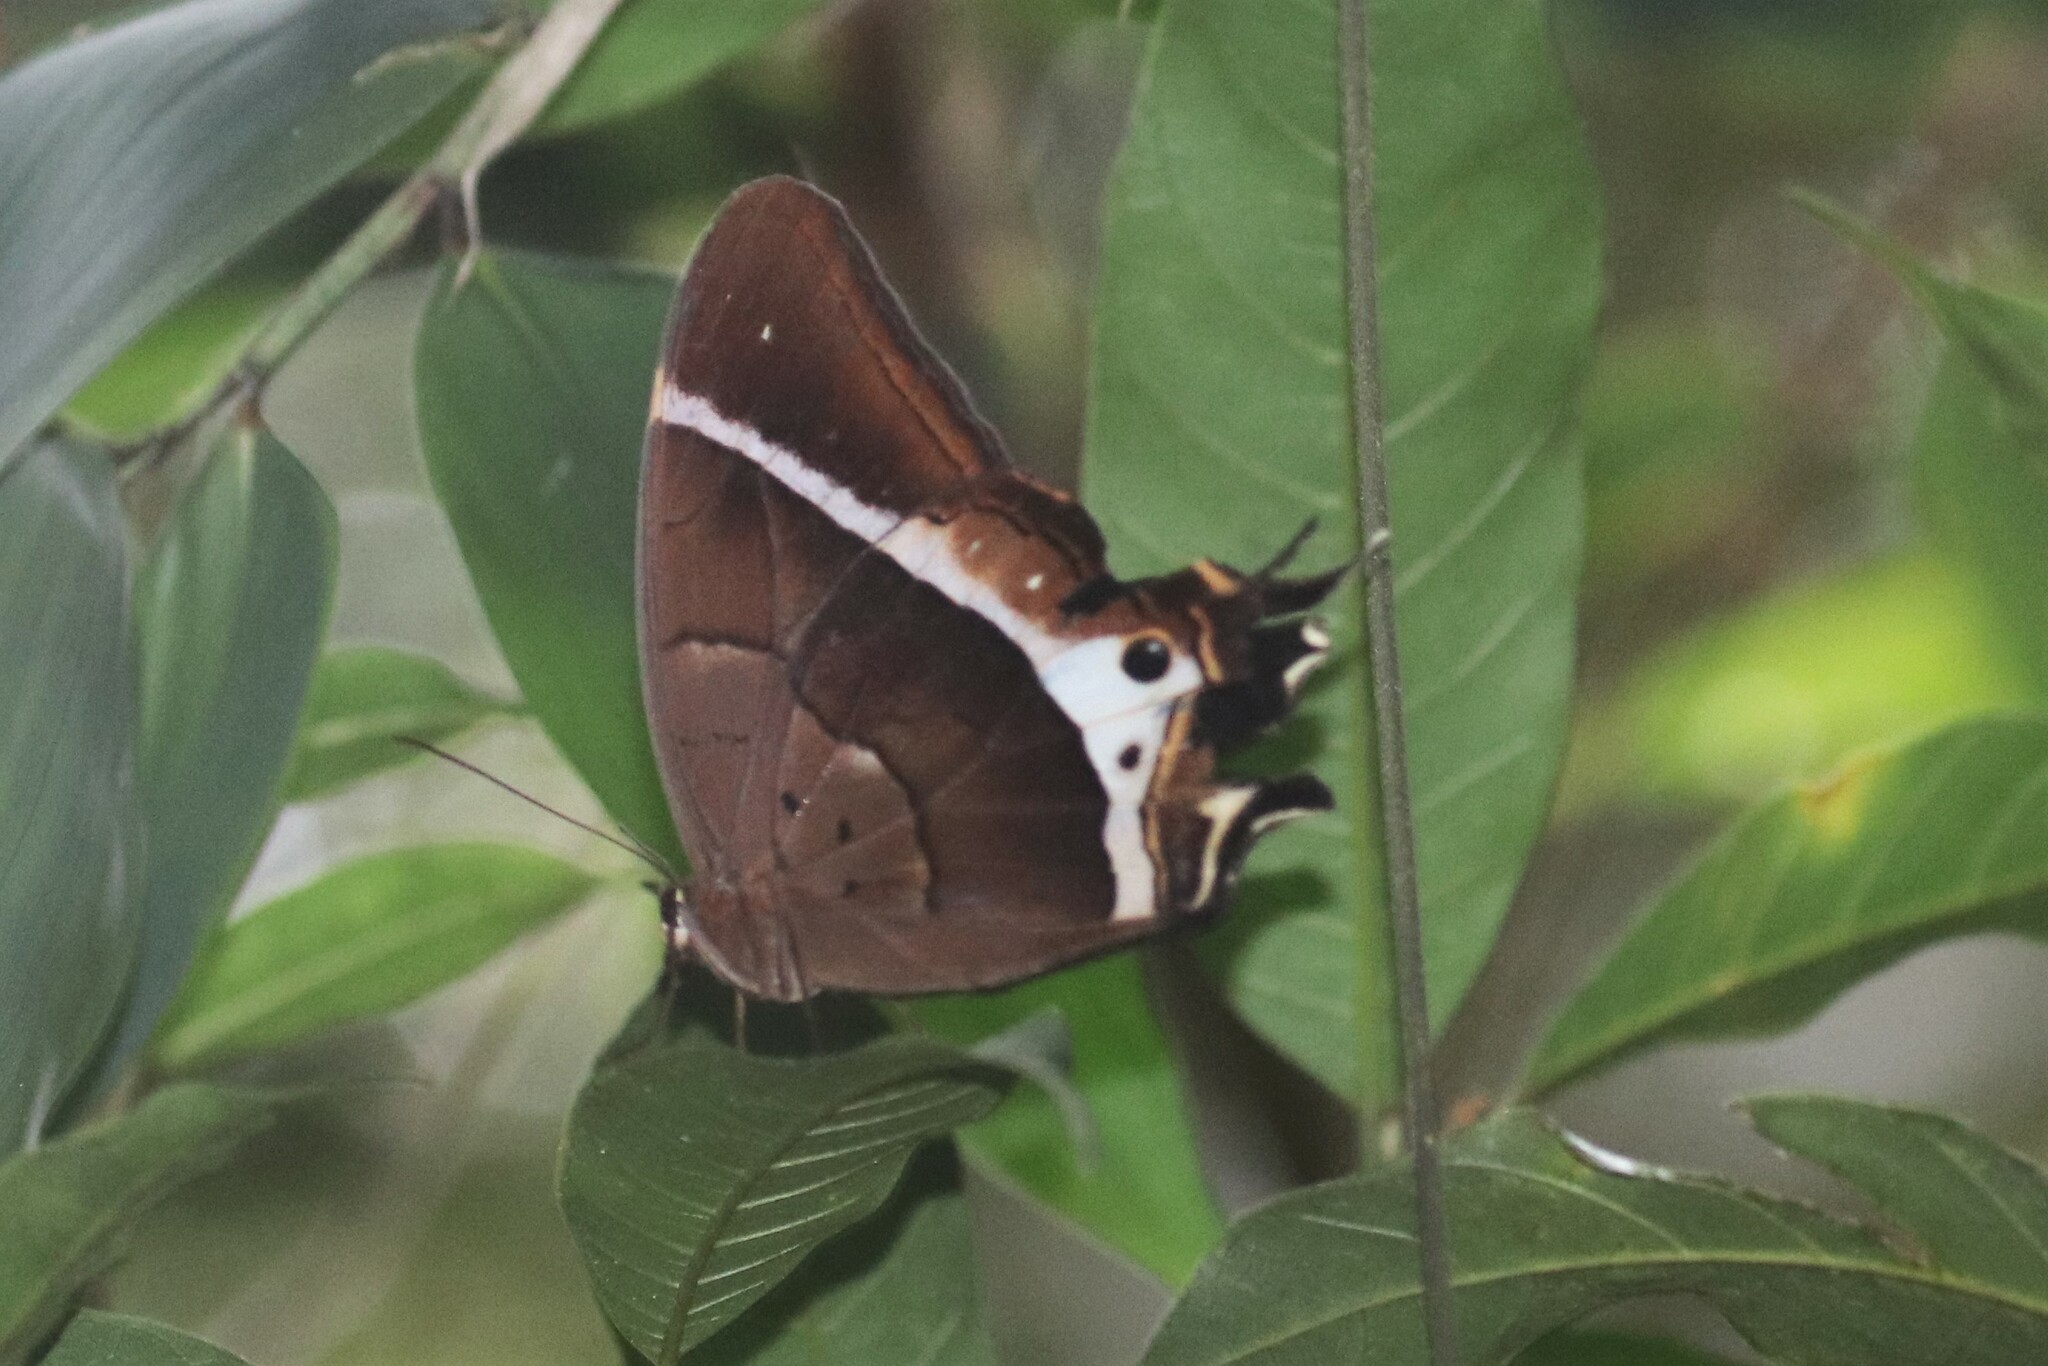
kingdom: Animalia
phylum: Arthropoda
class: Insecta
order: Lepidoptera
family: Nymphalidae
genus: Antirrhea
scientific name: Antirrhea philaretes
